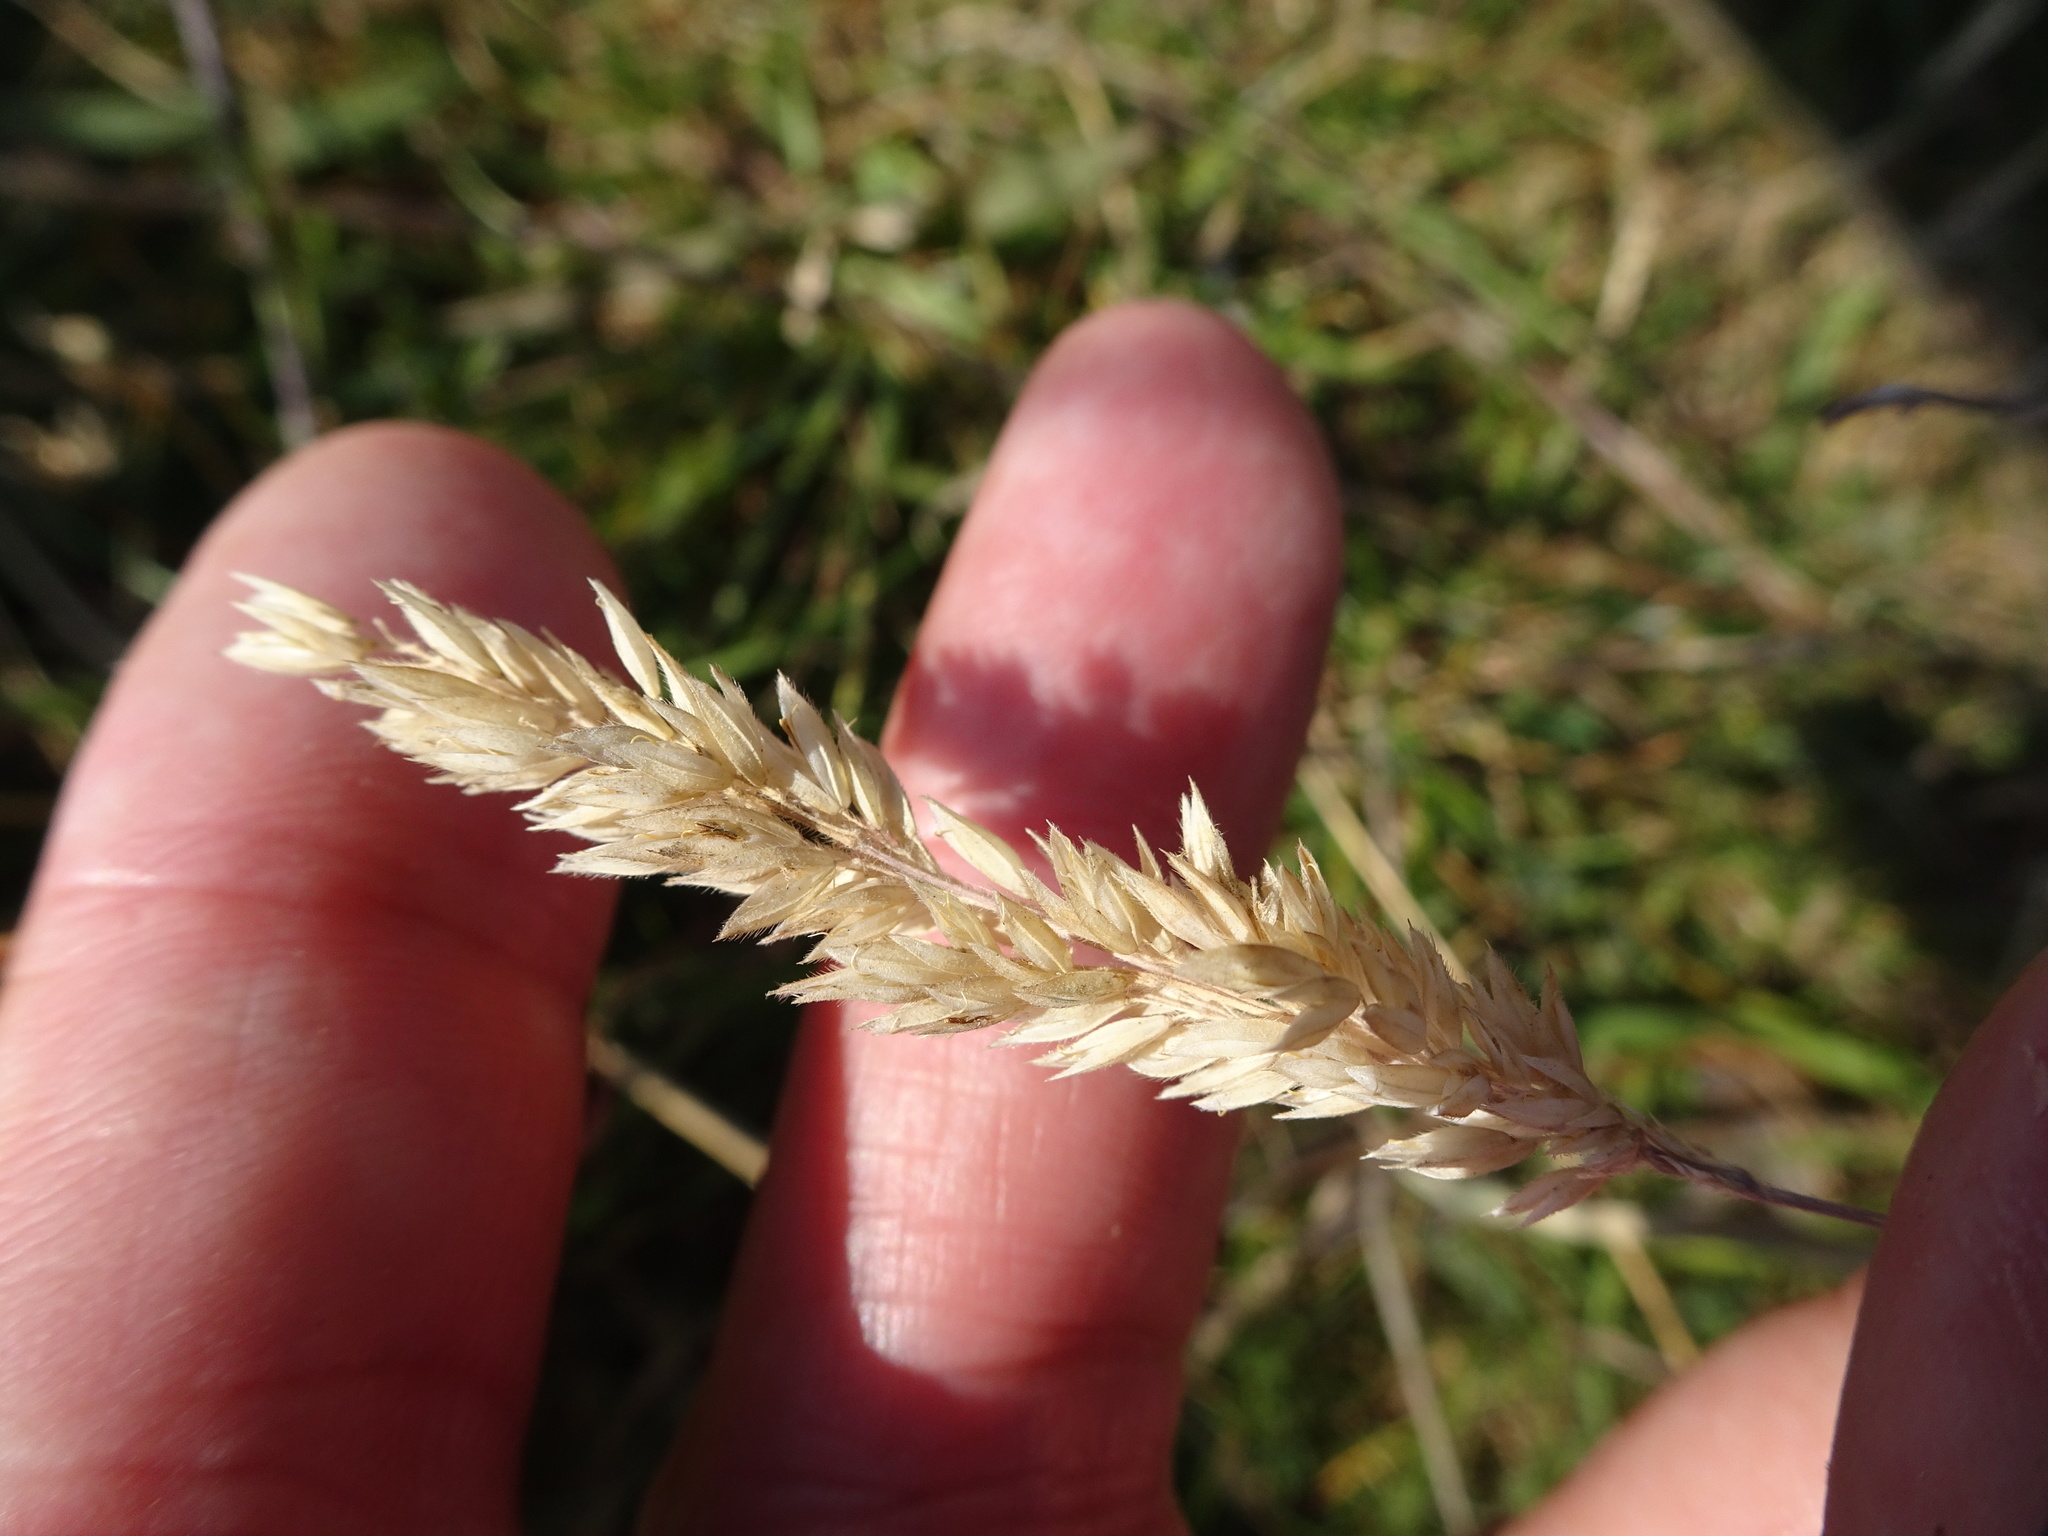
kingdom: Plantae
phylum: Tracheophyta
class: Liliopsida
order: Poales
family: Poaceae
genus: Holcus
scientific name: Holcus lanatus
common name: Yorkshire-fog
